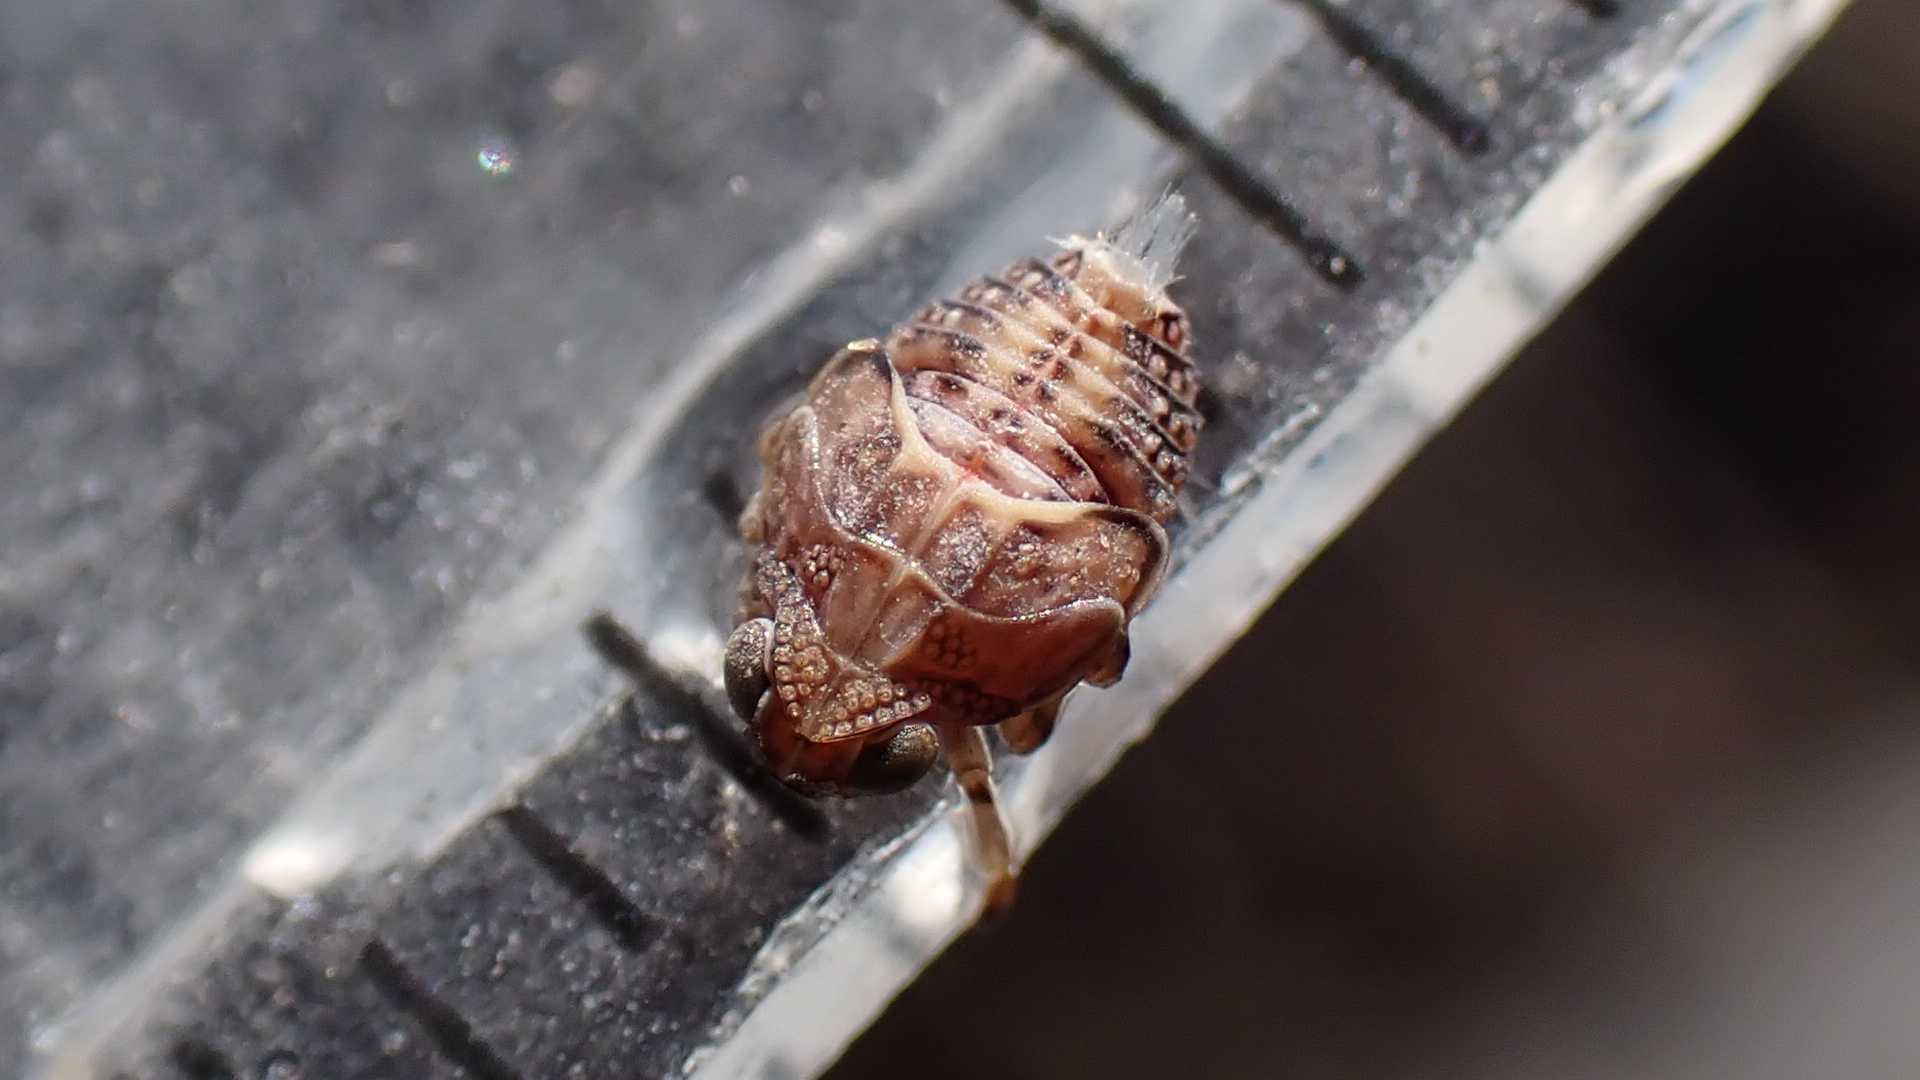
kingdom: Animalia
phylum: Arthropoda
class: Insecta
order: Hemiptera
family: Issidae
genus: Issus
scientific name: Issus coleoptratus
